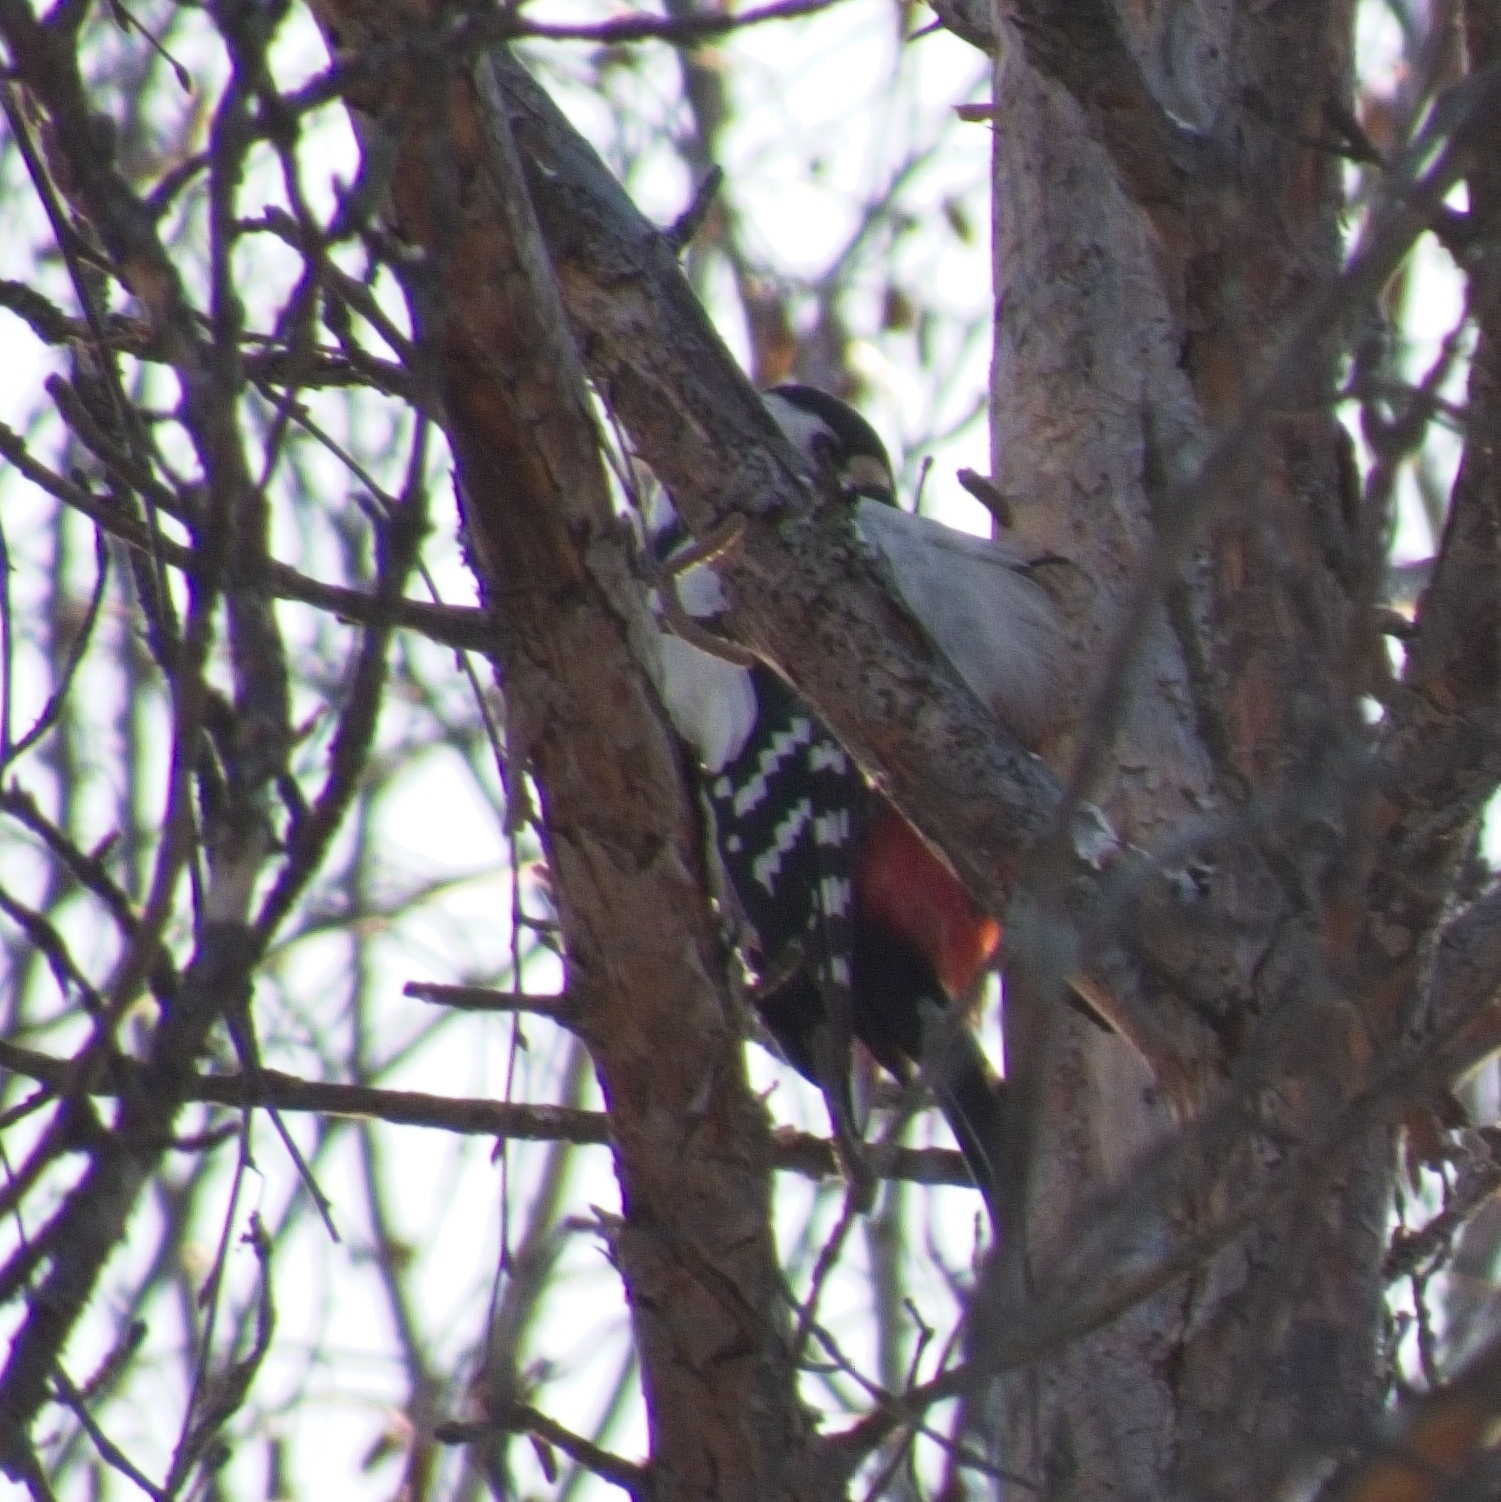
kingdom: Animalia
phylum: Chordata
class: Aves
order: Piciformes
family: Picidae
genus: Dendrocopos
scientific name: Dendrocopos major
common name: Great spotted woodpecker
